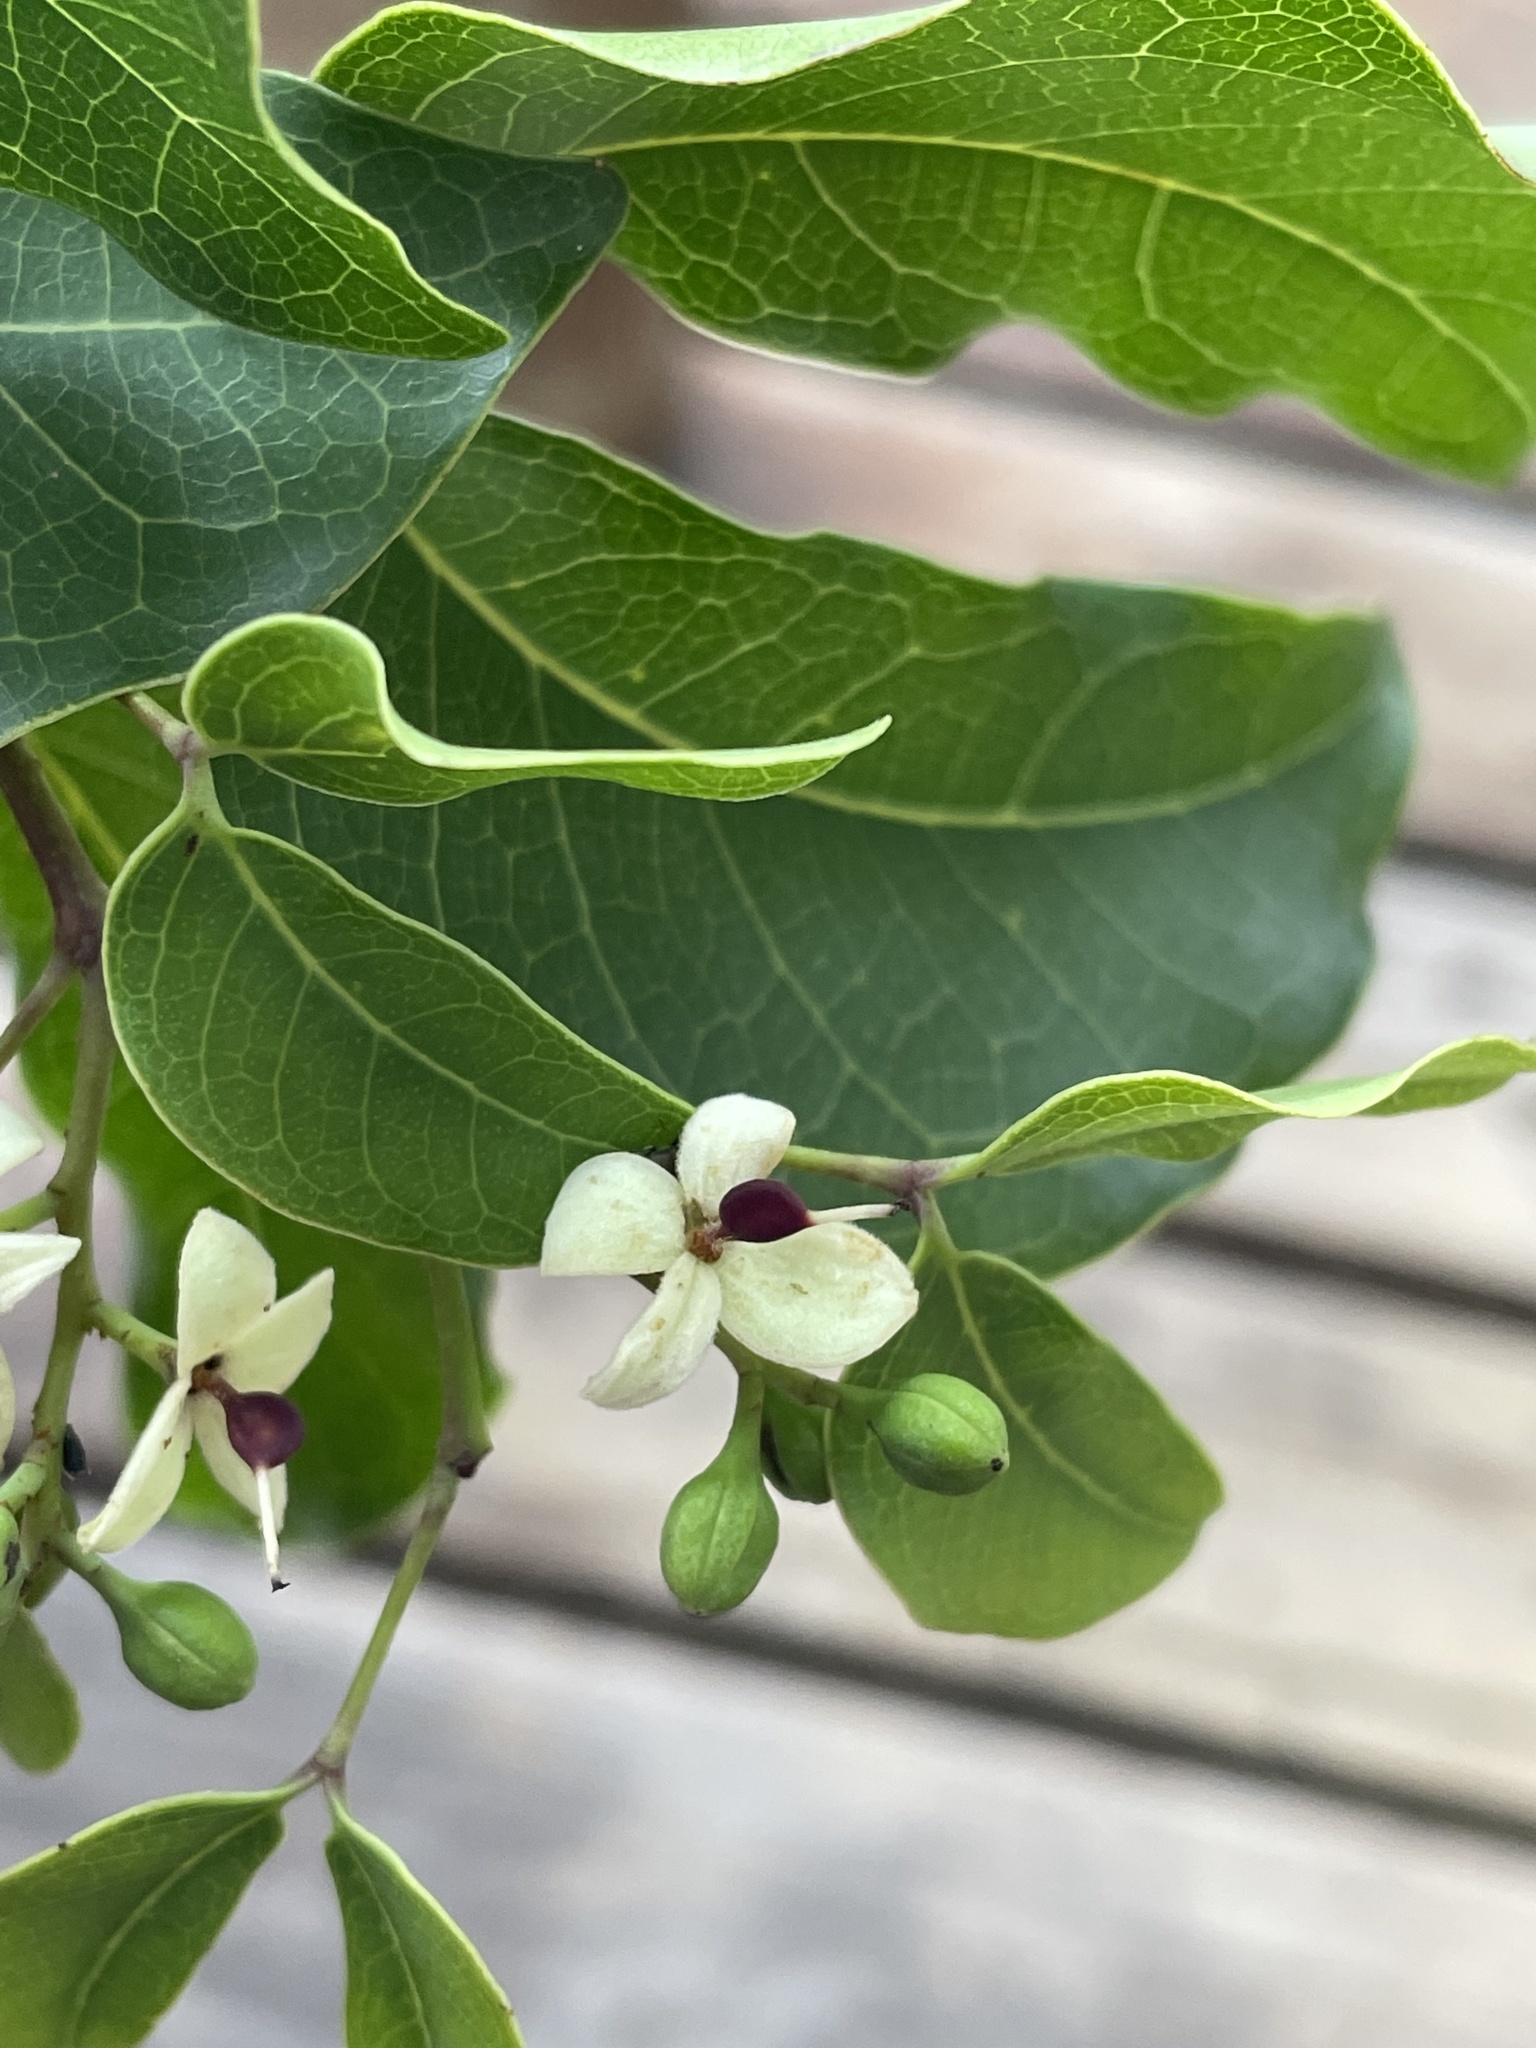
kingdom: Plantae
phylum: Tracheophyta
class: Magnoliopsida
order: Fabales
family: Fabaceae
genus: Guibourtia
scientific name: Guibourtia coleosperma
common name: African rosewoood
